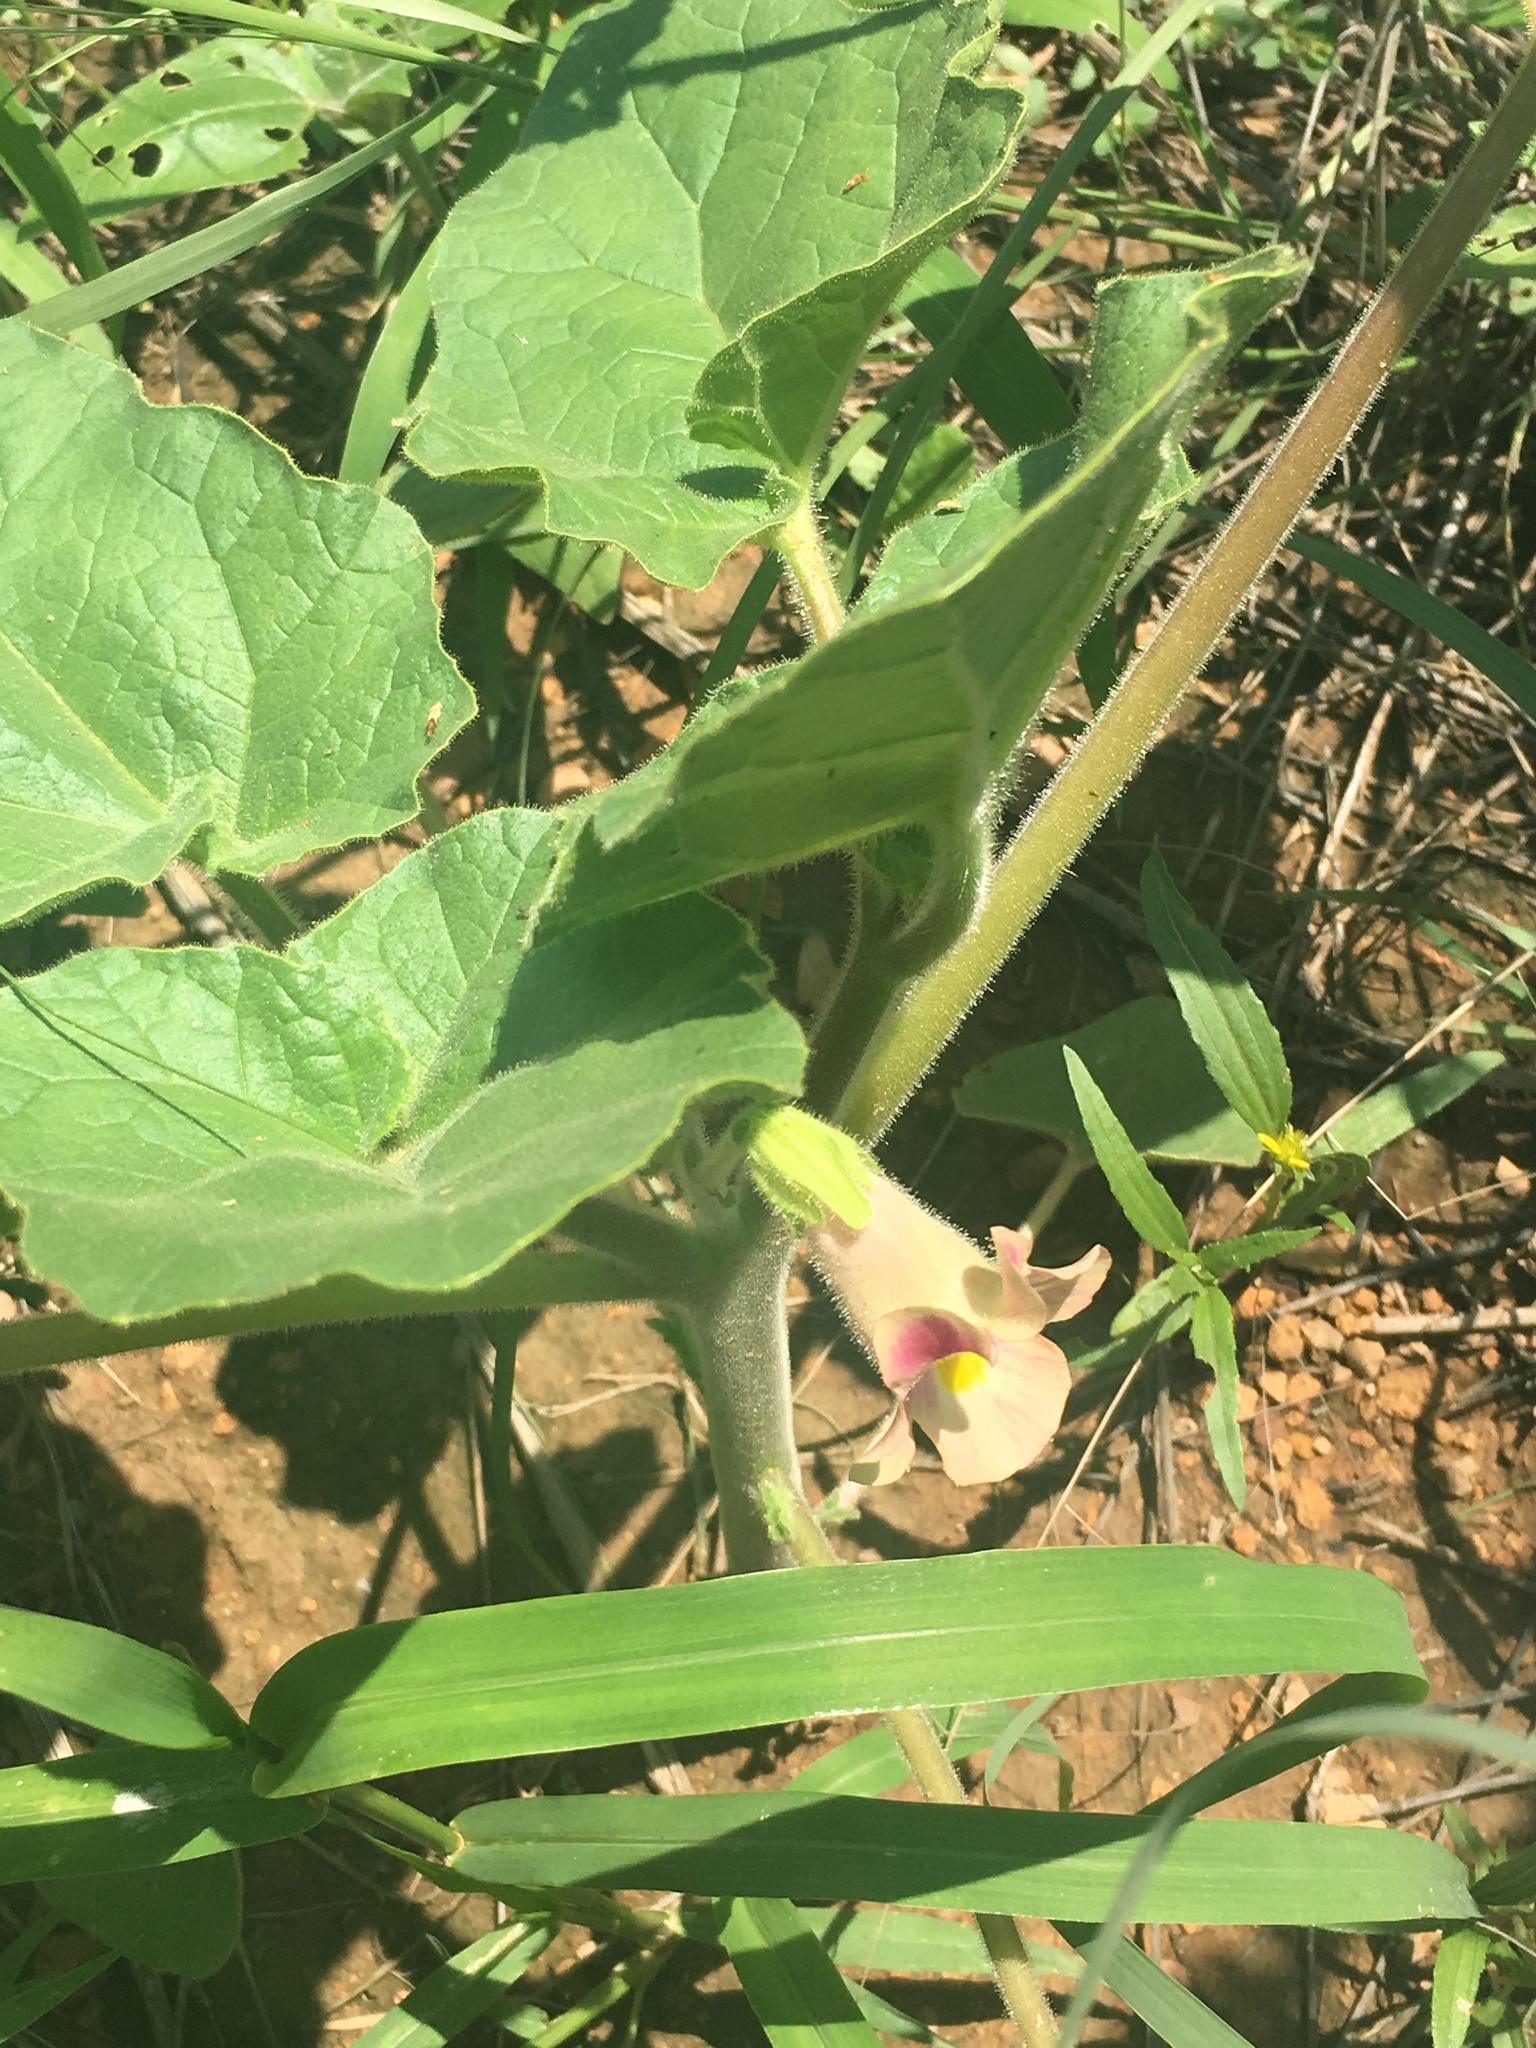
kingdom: Plantae
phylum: Tracheophyta
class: Magnoliopsida
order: Lamiales
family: Martyniaceae
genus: Proboscidea
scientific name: Proboscidea parviflora
